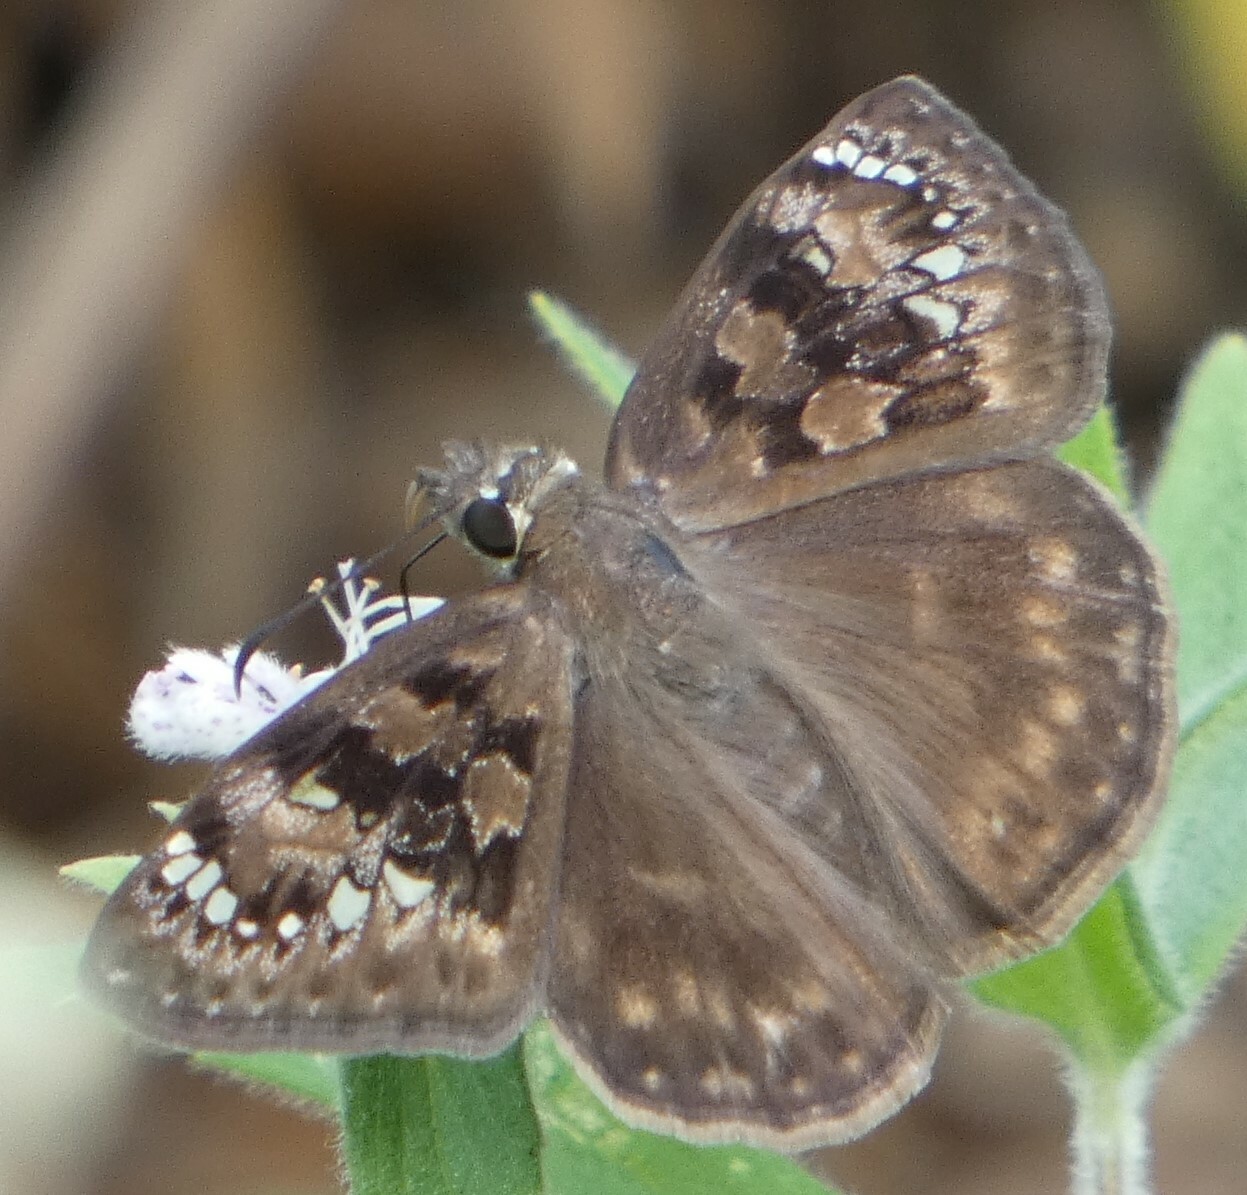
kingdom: Animalia
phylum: Arthropoda
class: Insecta
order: Lepidoptera
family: Hesperiidae
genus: Erynnis
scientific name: Erynnis horatius
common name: Horace's duskywing
